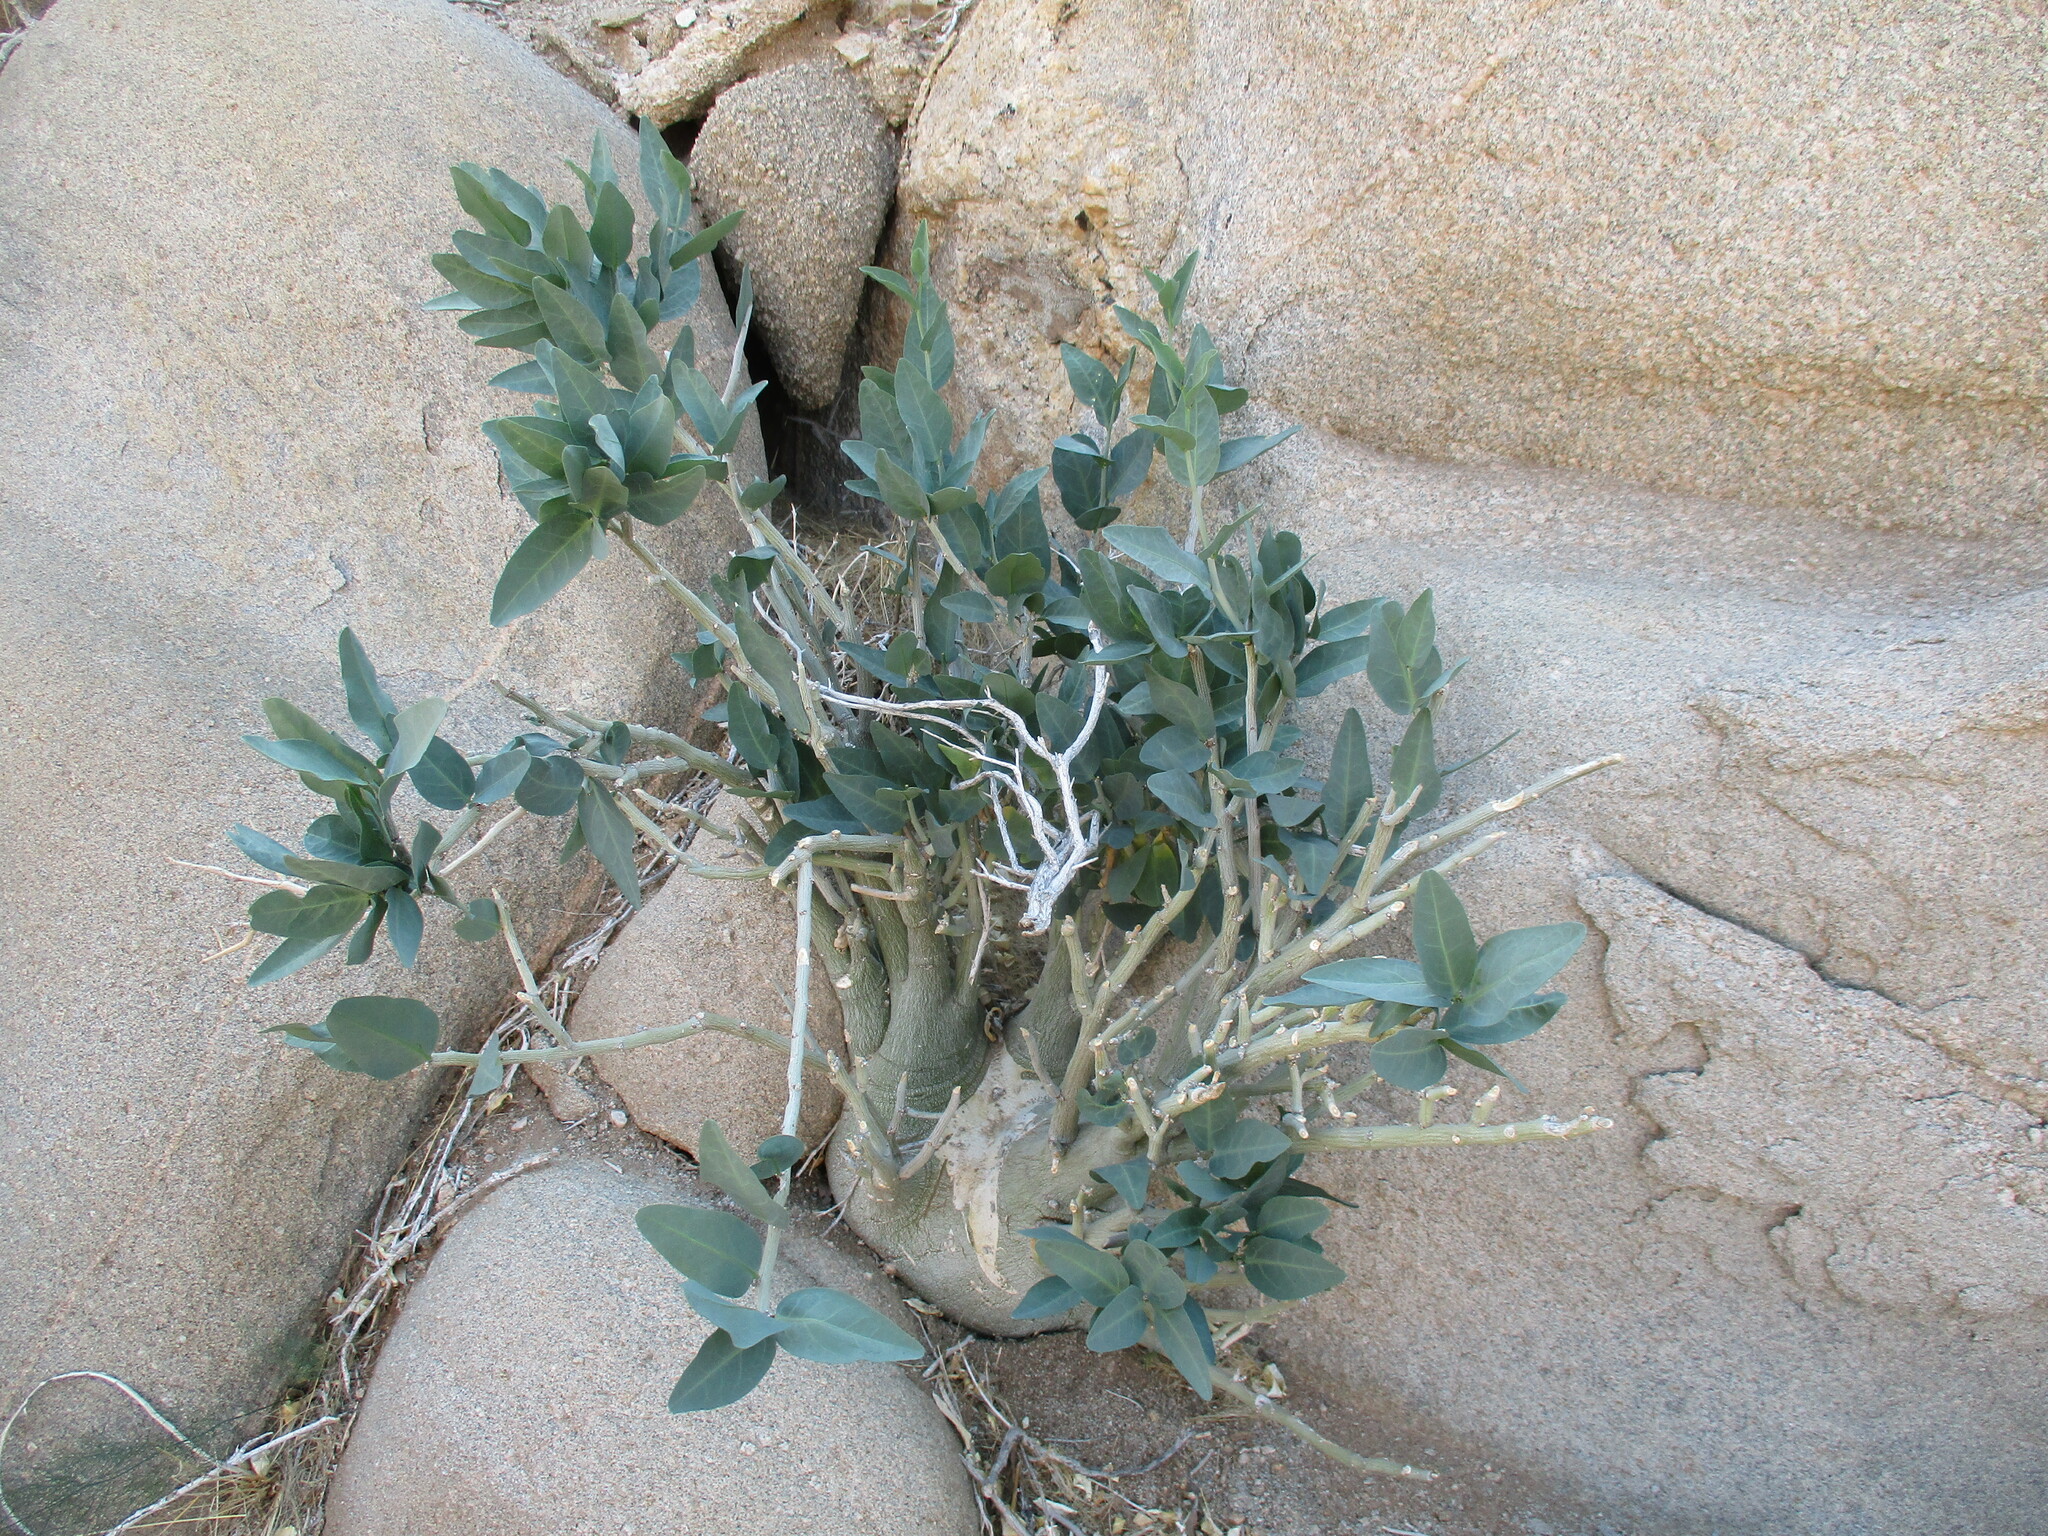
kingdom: Plantae
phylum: Tracheophyta
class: Magnoliopsida
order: Malpighiales
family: Passifloraceae
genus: Adenia
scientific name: Adenia pechuelii
